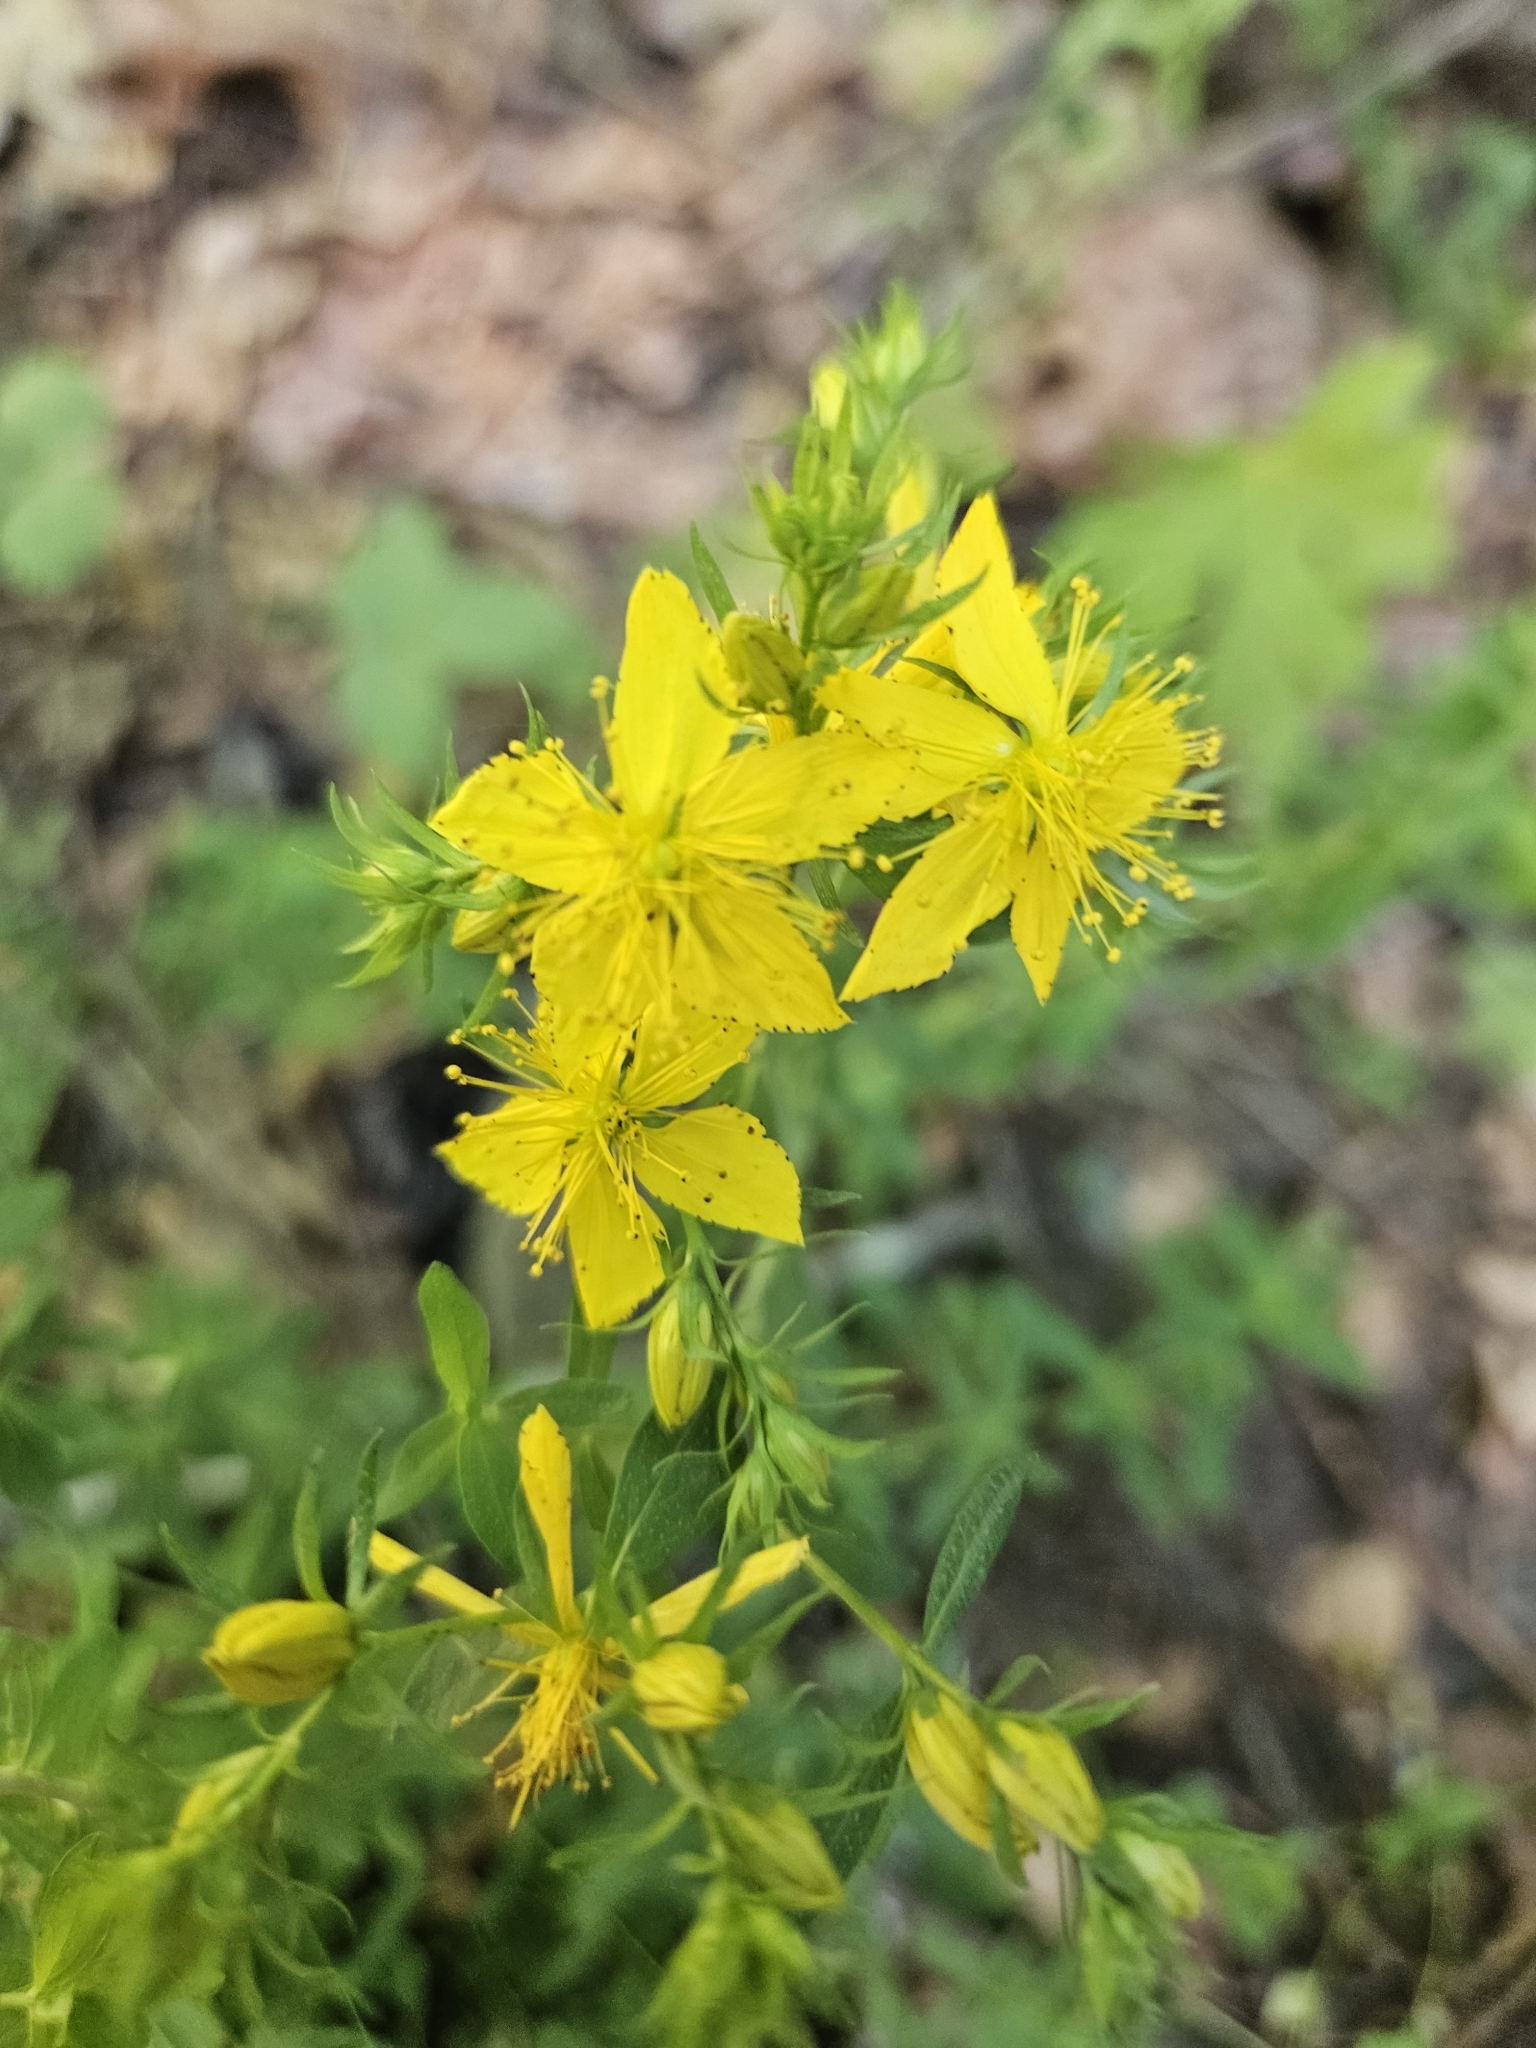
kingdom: Plantae
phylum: Tracheophyta
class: Magnoliopsida
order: Malpighiales
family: Hypericaceae
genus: Hypericum
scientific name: Hypericum perforatum
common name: Common st. johnswort
